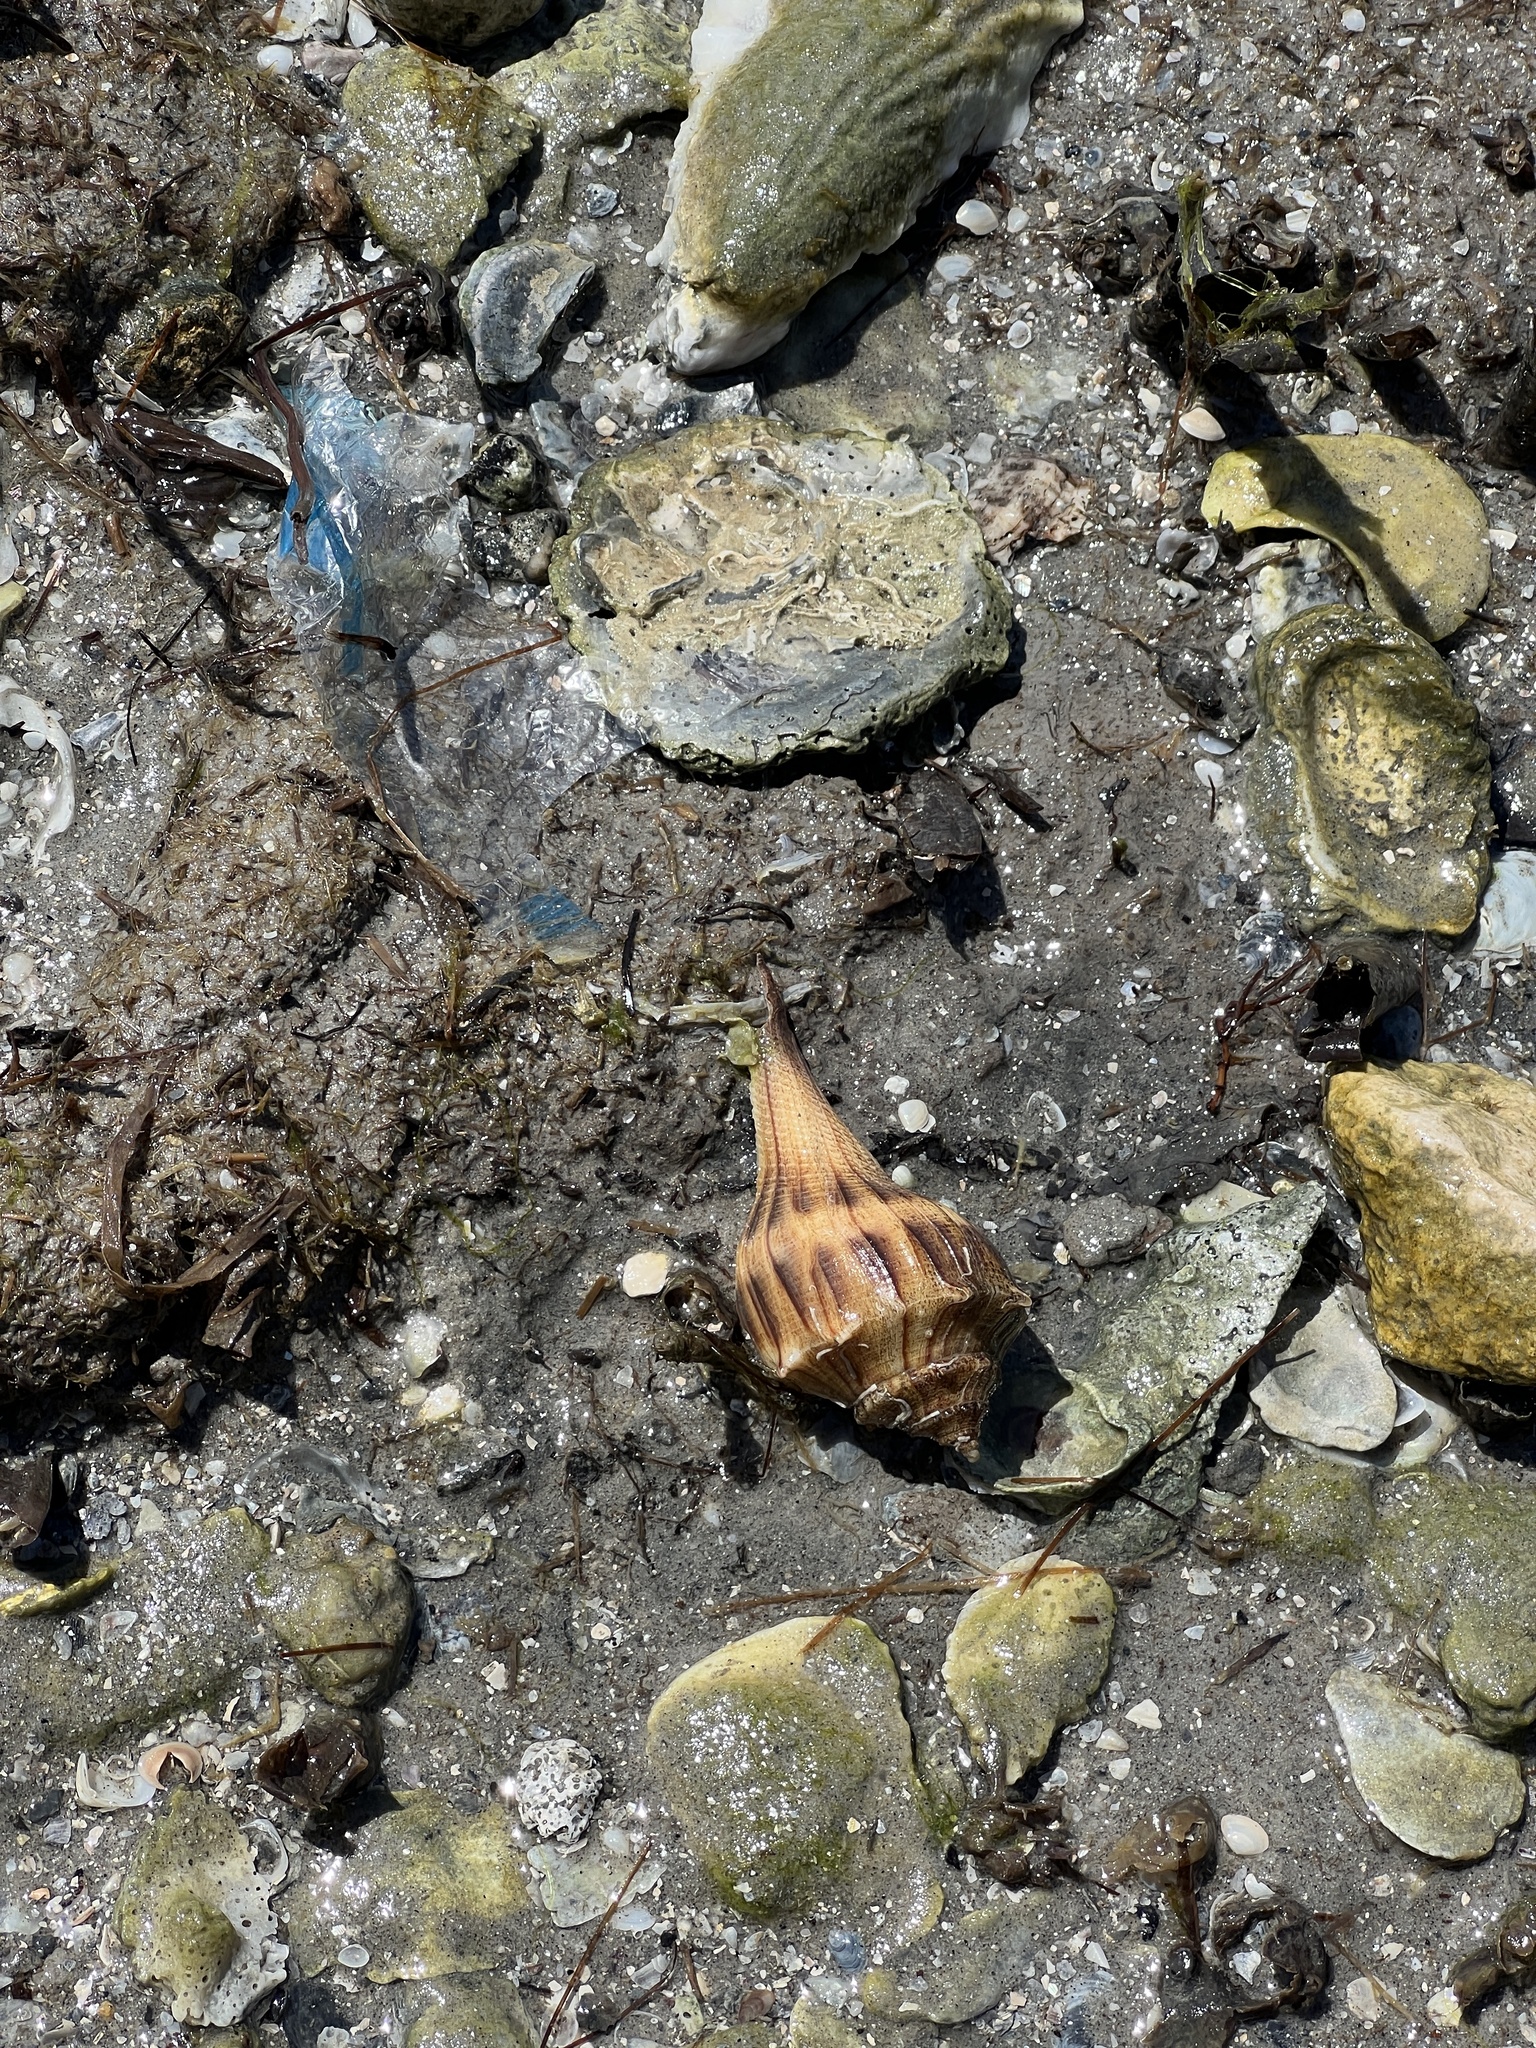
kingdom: Animalia
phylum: Mollusca
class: Gastropoda
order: Neogastropoda
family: Busyconidae
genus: Sinistrofulgur
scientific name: Sinistrofulgur pulleyi
